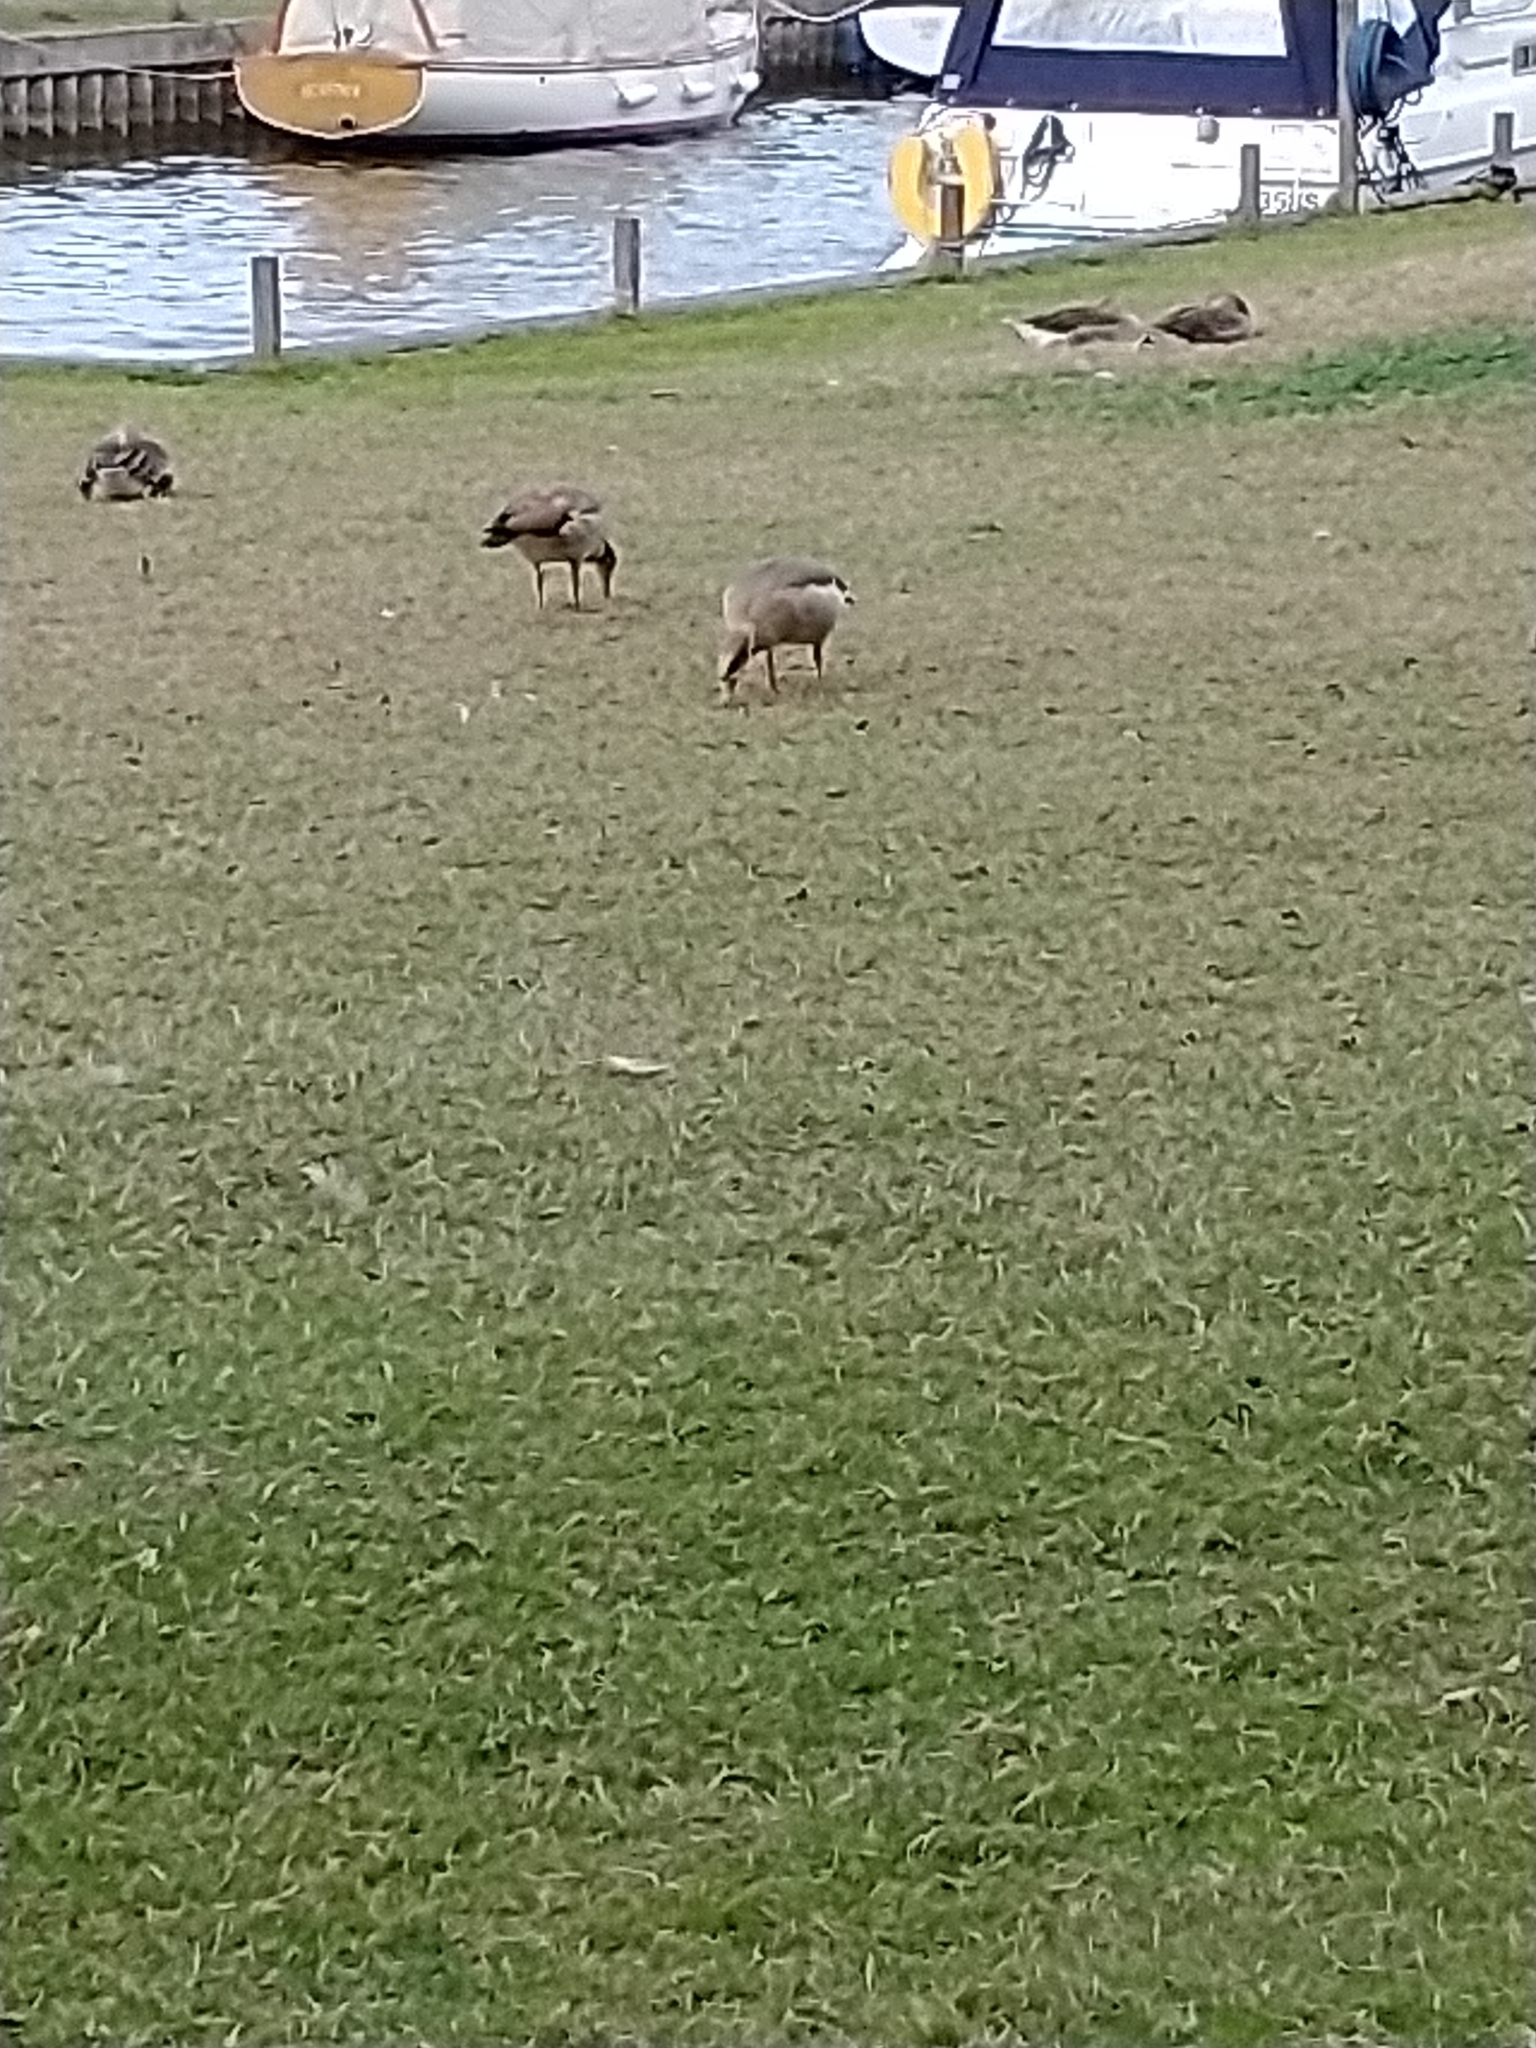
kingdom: Animalia
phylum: Chordata
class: Aves
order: Anseriformes
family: Anatidae
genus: Alopochen
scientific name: Alopochen aegyptiaca
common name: Egyptian goose
